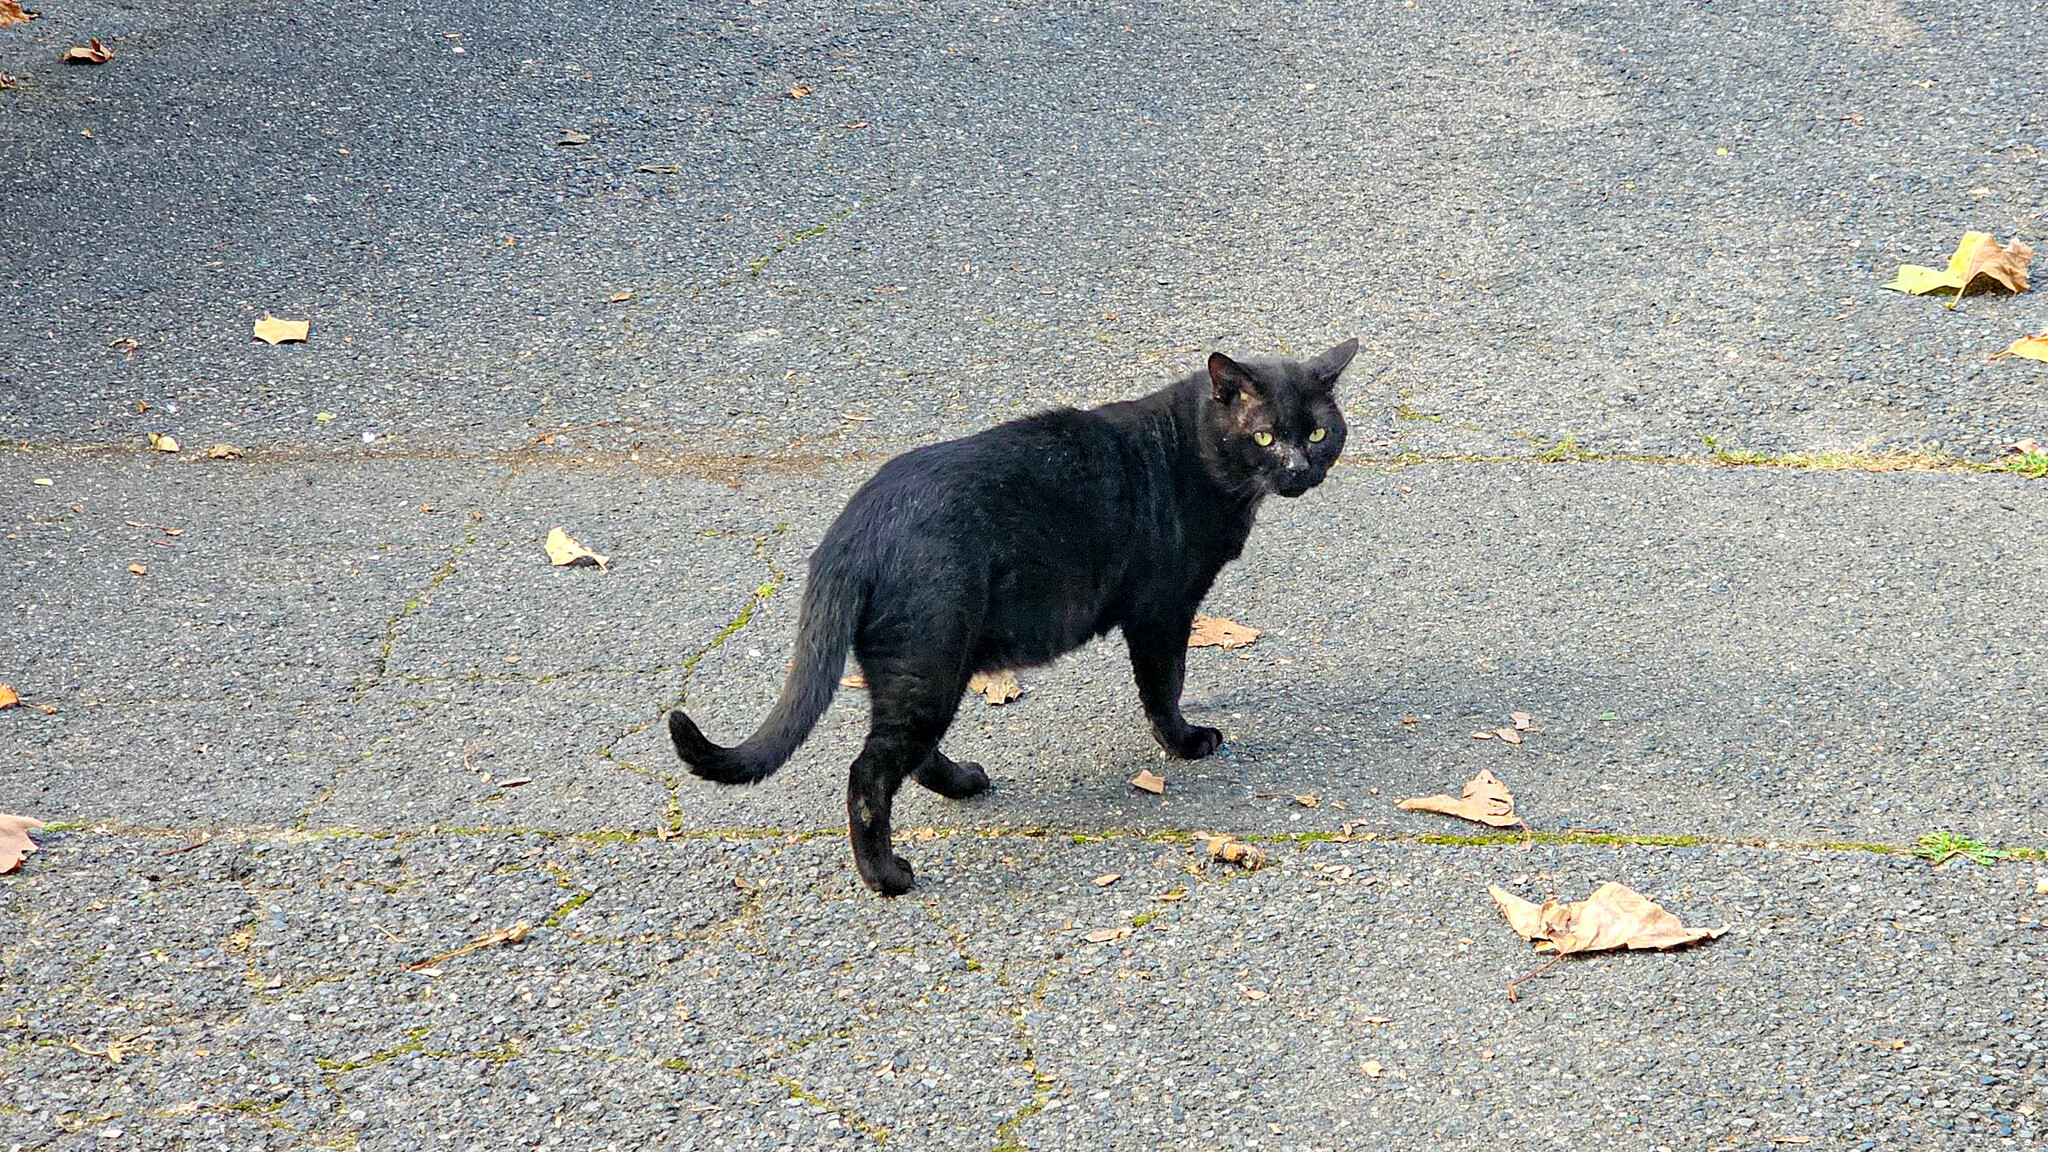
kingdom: Animalia
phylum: Chordata
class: Mammalia
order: Carnivora
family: Felidae
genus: Felis
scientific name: Felis catus
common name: Domestic cat
